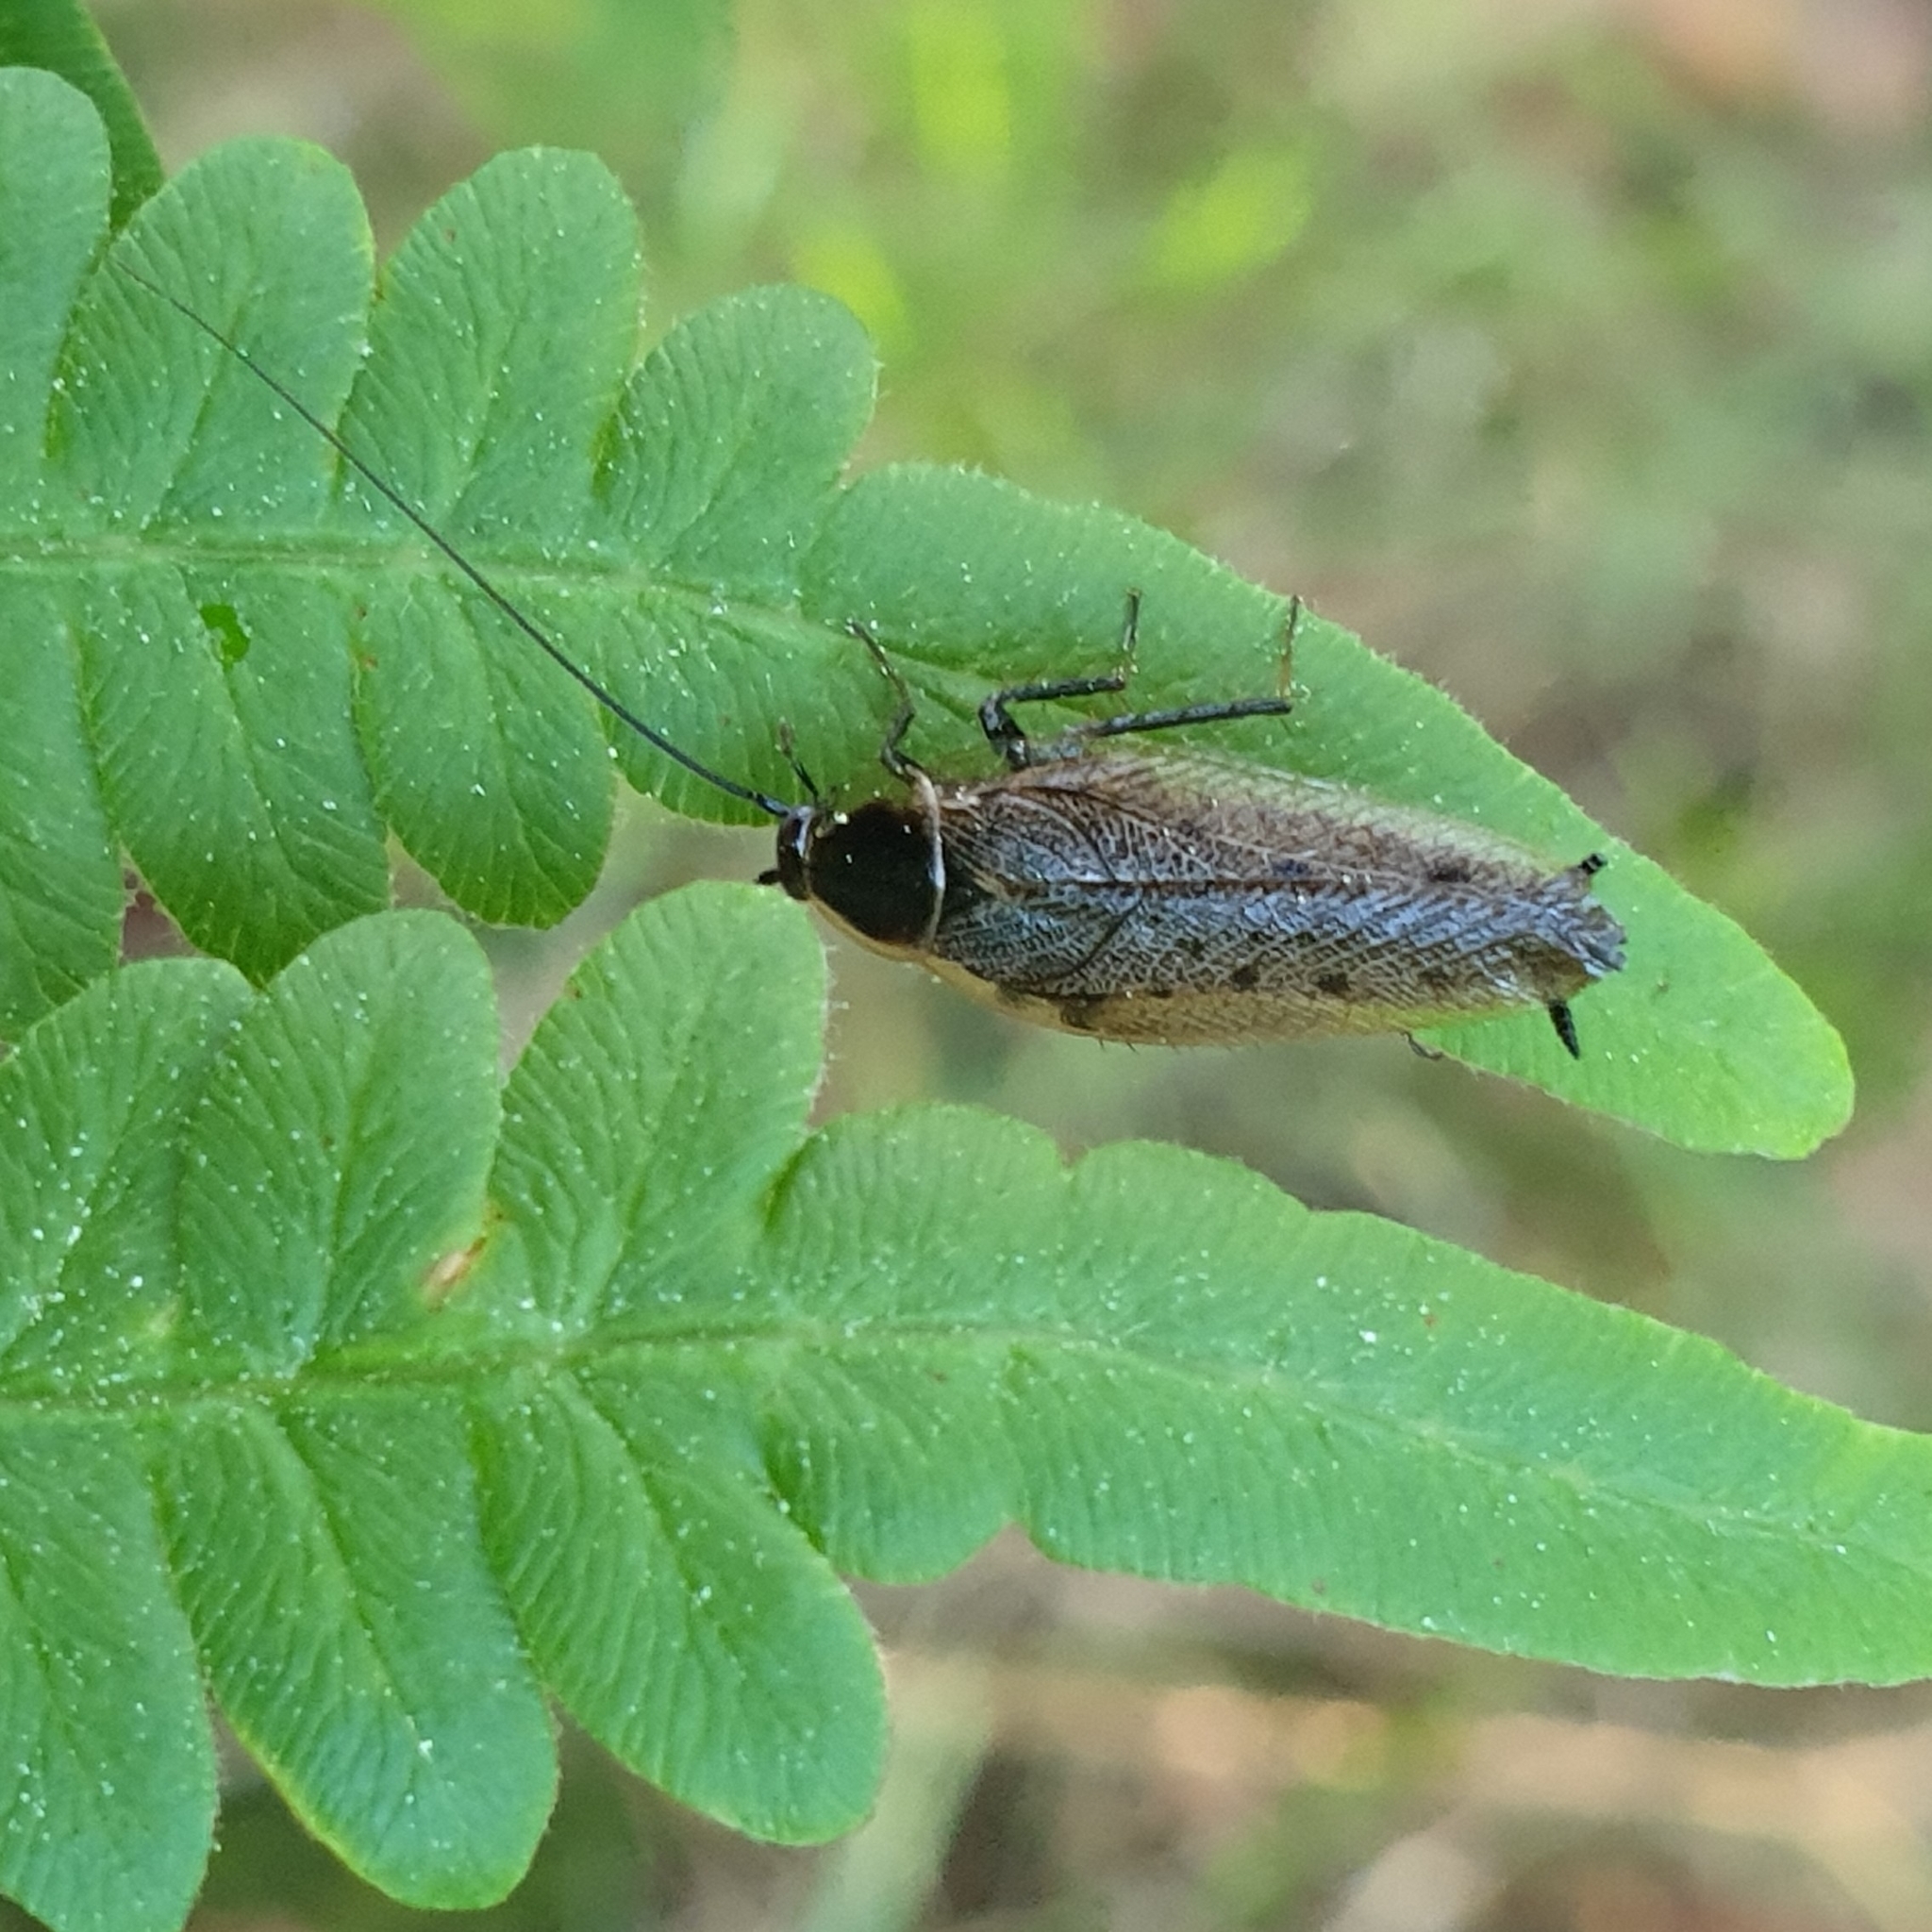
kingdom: Animalia
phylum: Arthropoda
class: Insecta
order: Blattodea
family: Ectobiidae
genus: Ectobius
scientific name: Ectobius lapponicus
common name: Dusky cockroach
